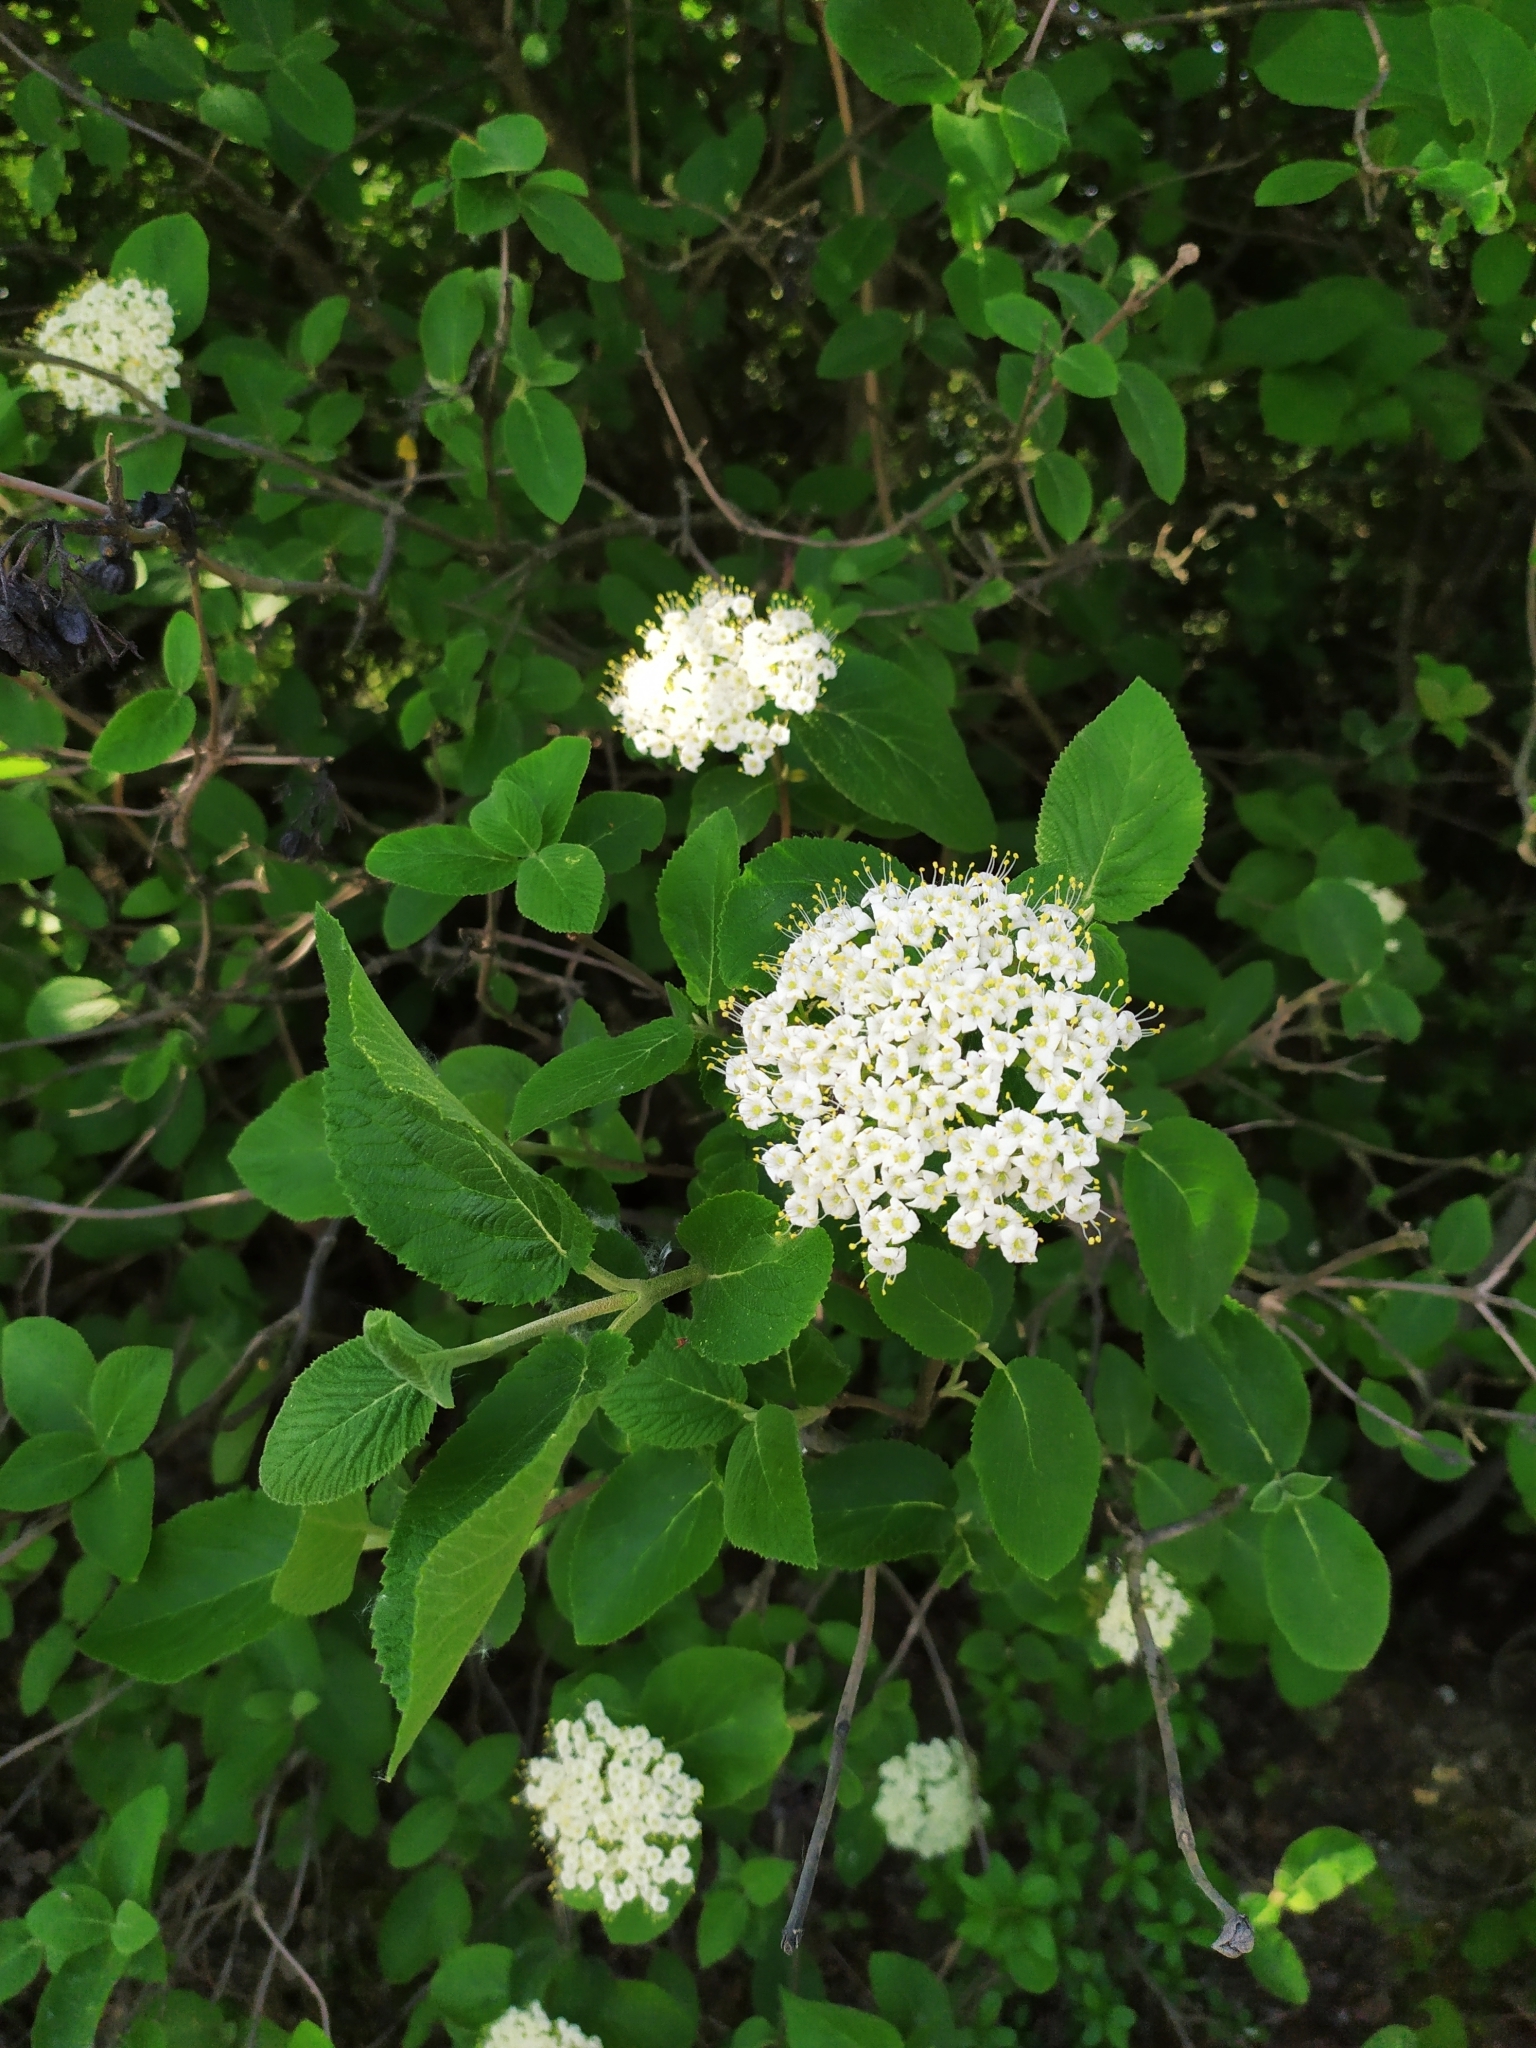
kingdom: Plantae
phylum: Tracheophyta
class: Magnoliopsida
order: Dipsacales
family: Viburnaceae
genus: Viburnum
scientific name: Viburnum lantana
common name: Wayfaring tree
